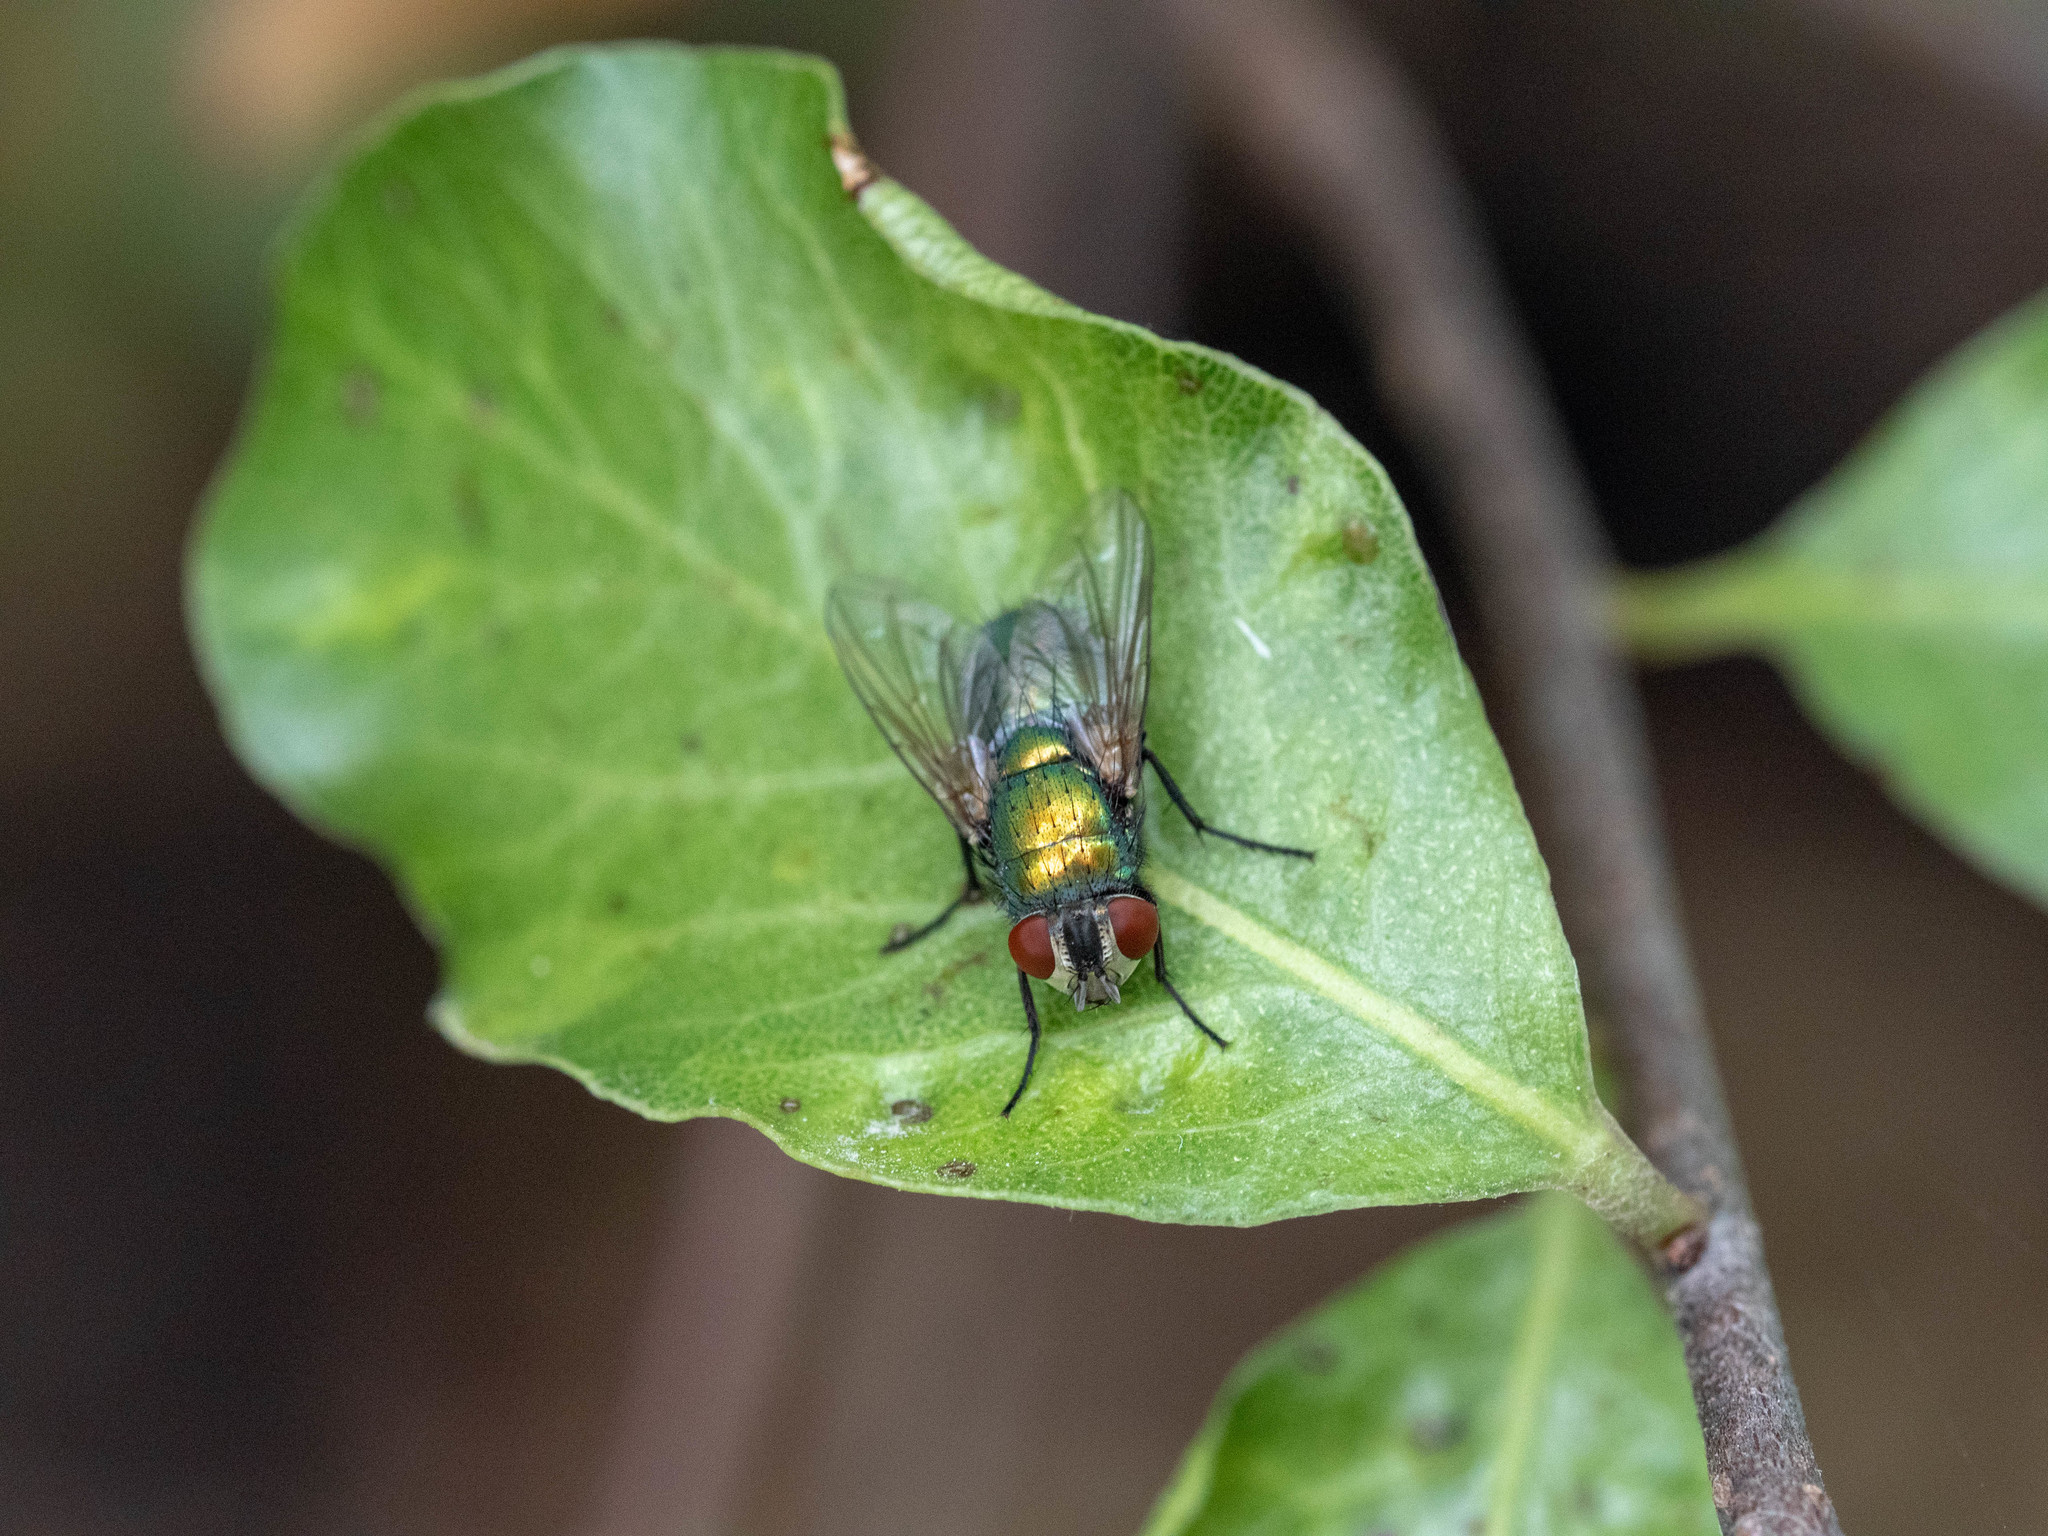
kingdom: Animalia
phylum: Arthropoda
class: Insecta
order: Diptera
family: Calliphoridae
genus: Lucilia
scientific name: Lucilia sericata
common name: Blow fly
